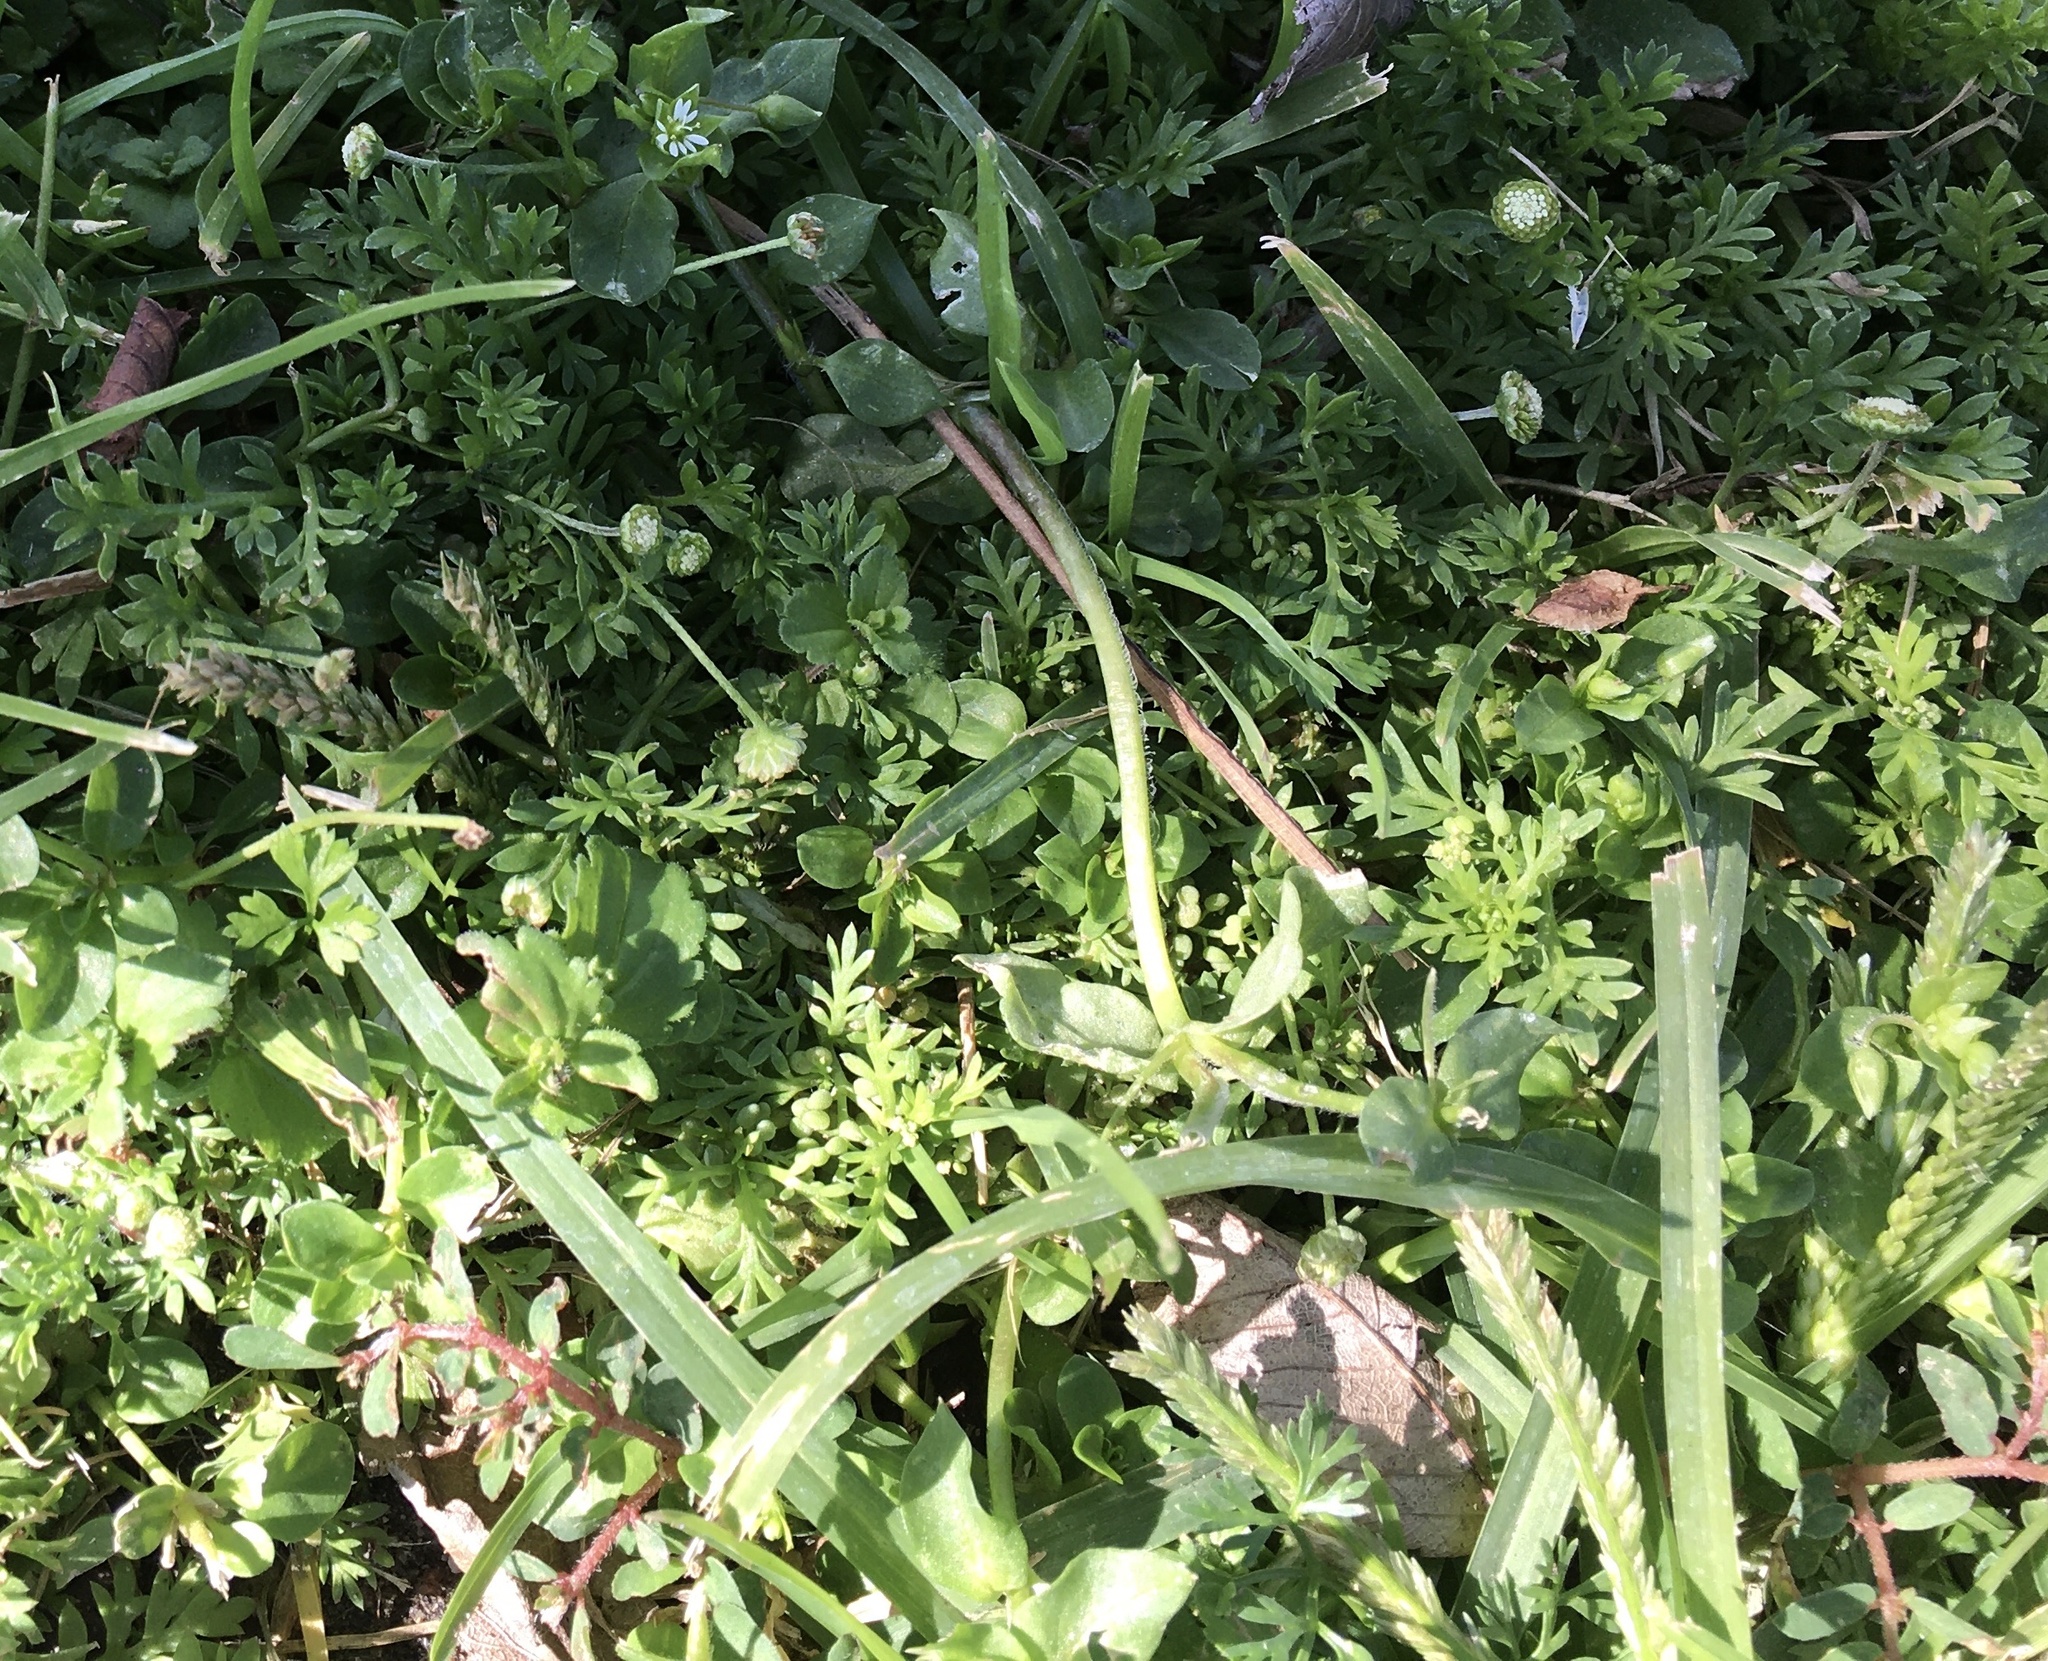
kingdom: Plantae
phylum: Tracheophyta
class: Magnoliopsida
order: Asterales
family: Asteraceae
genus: Cotula
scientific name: Cotula australis
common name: Australian waterbuttons
